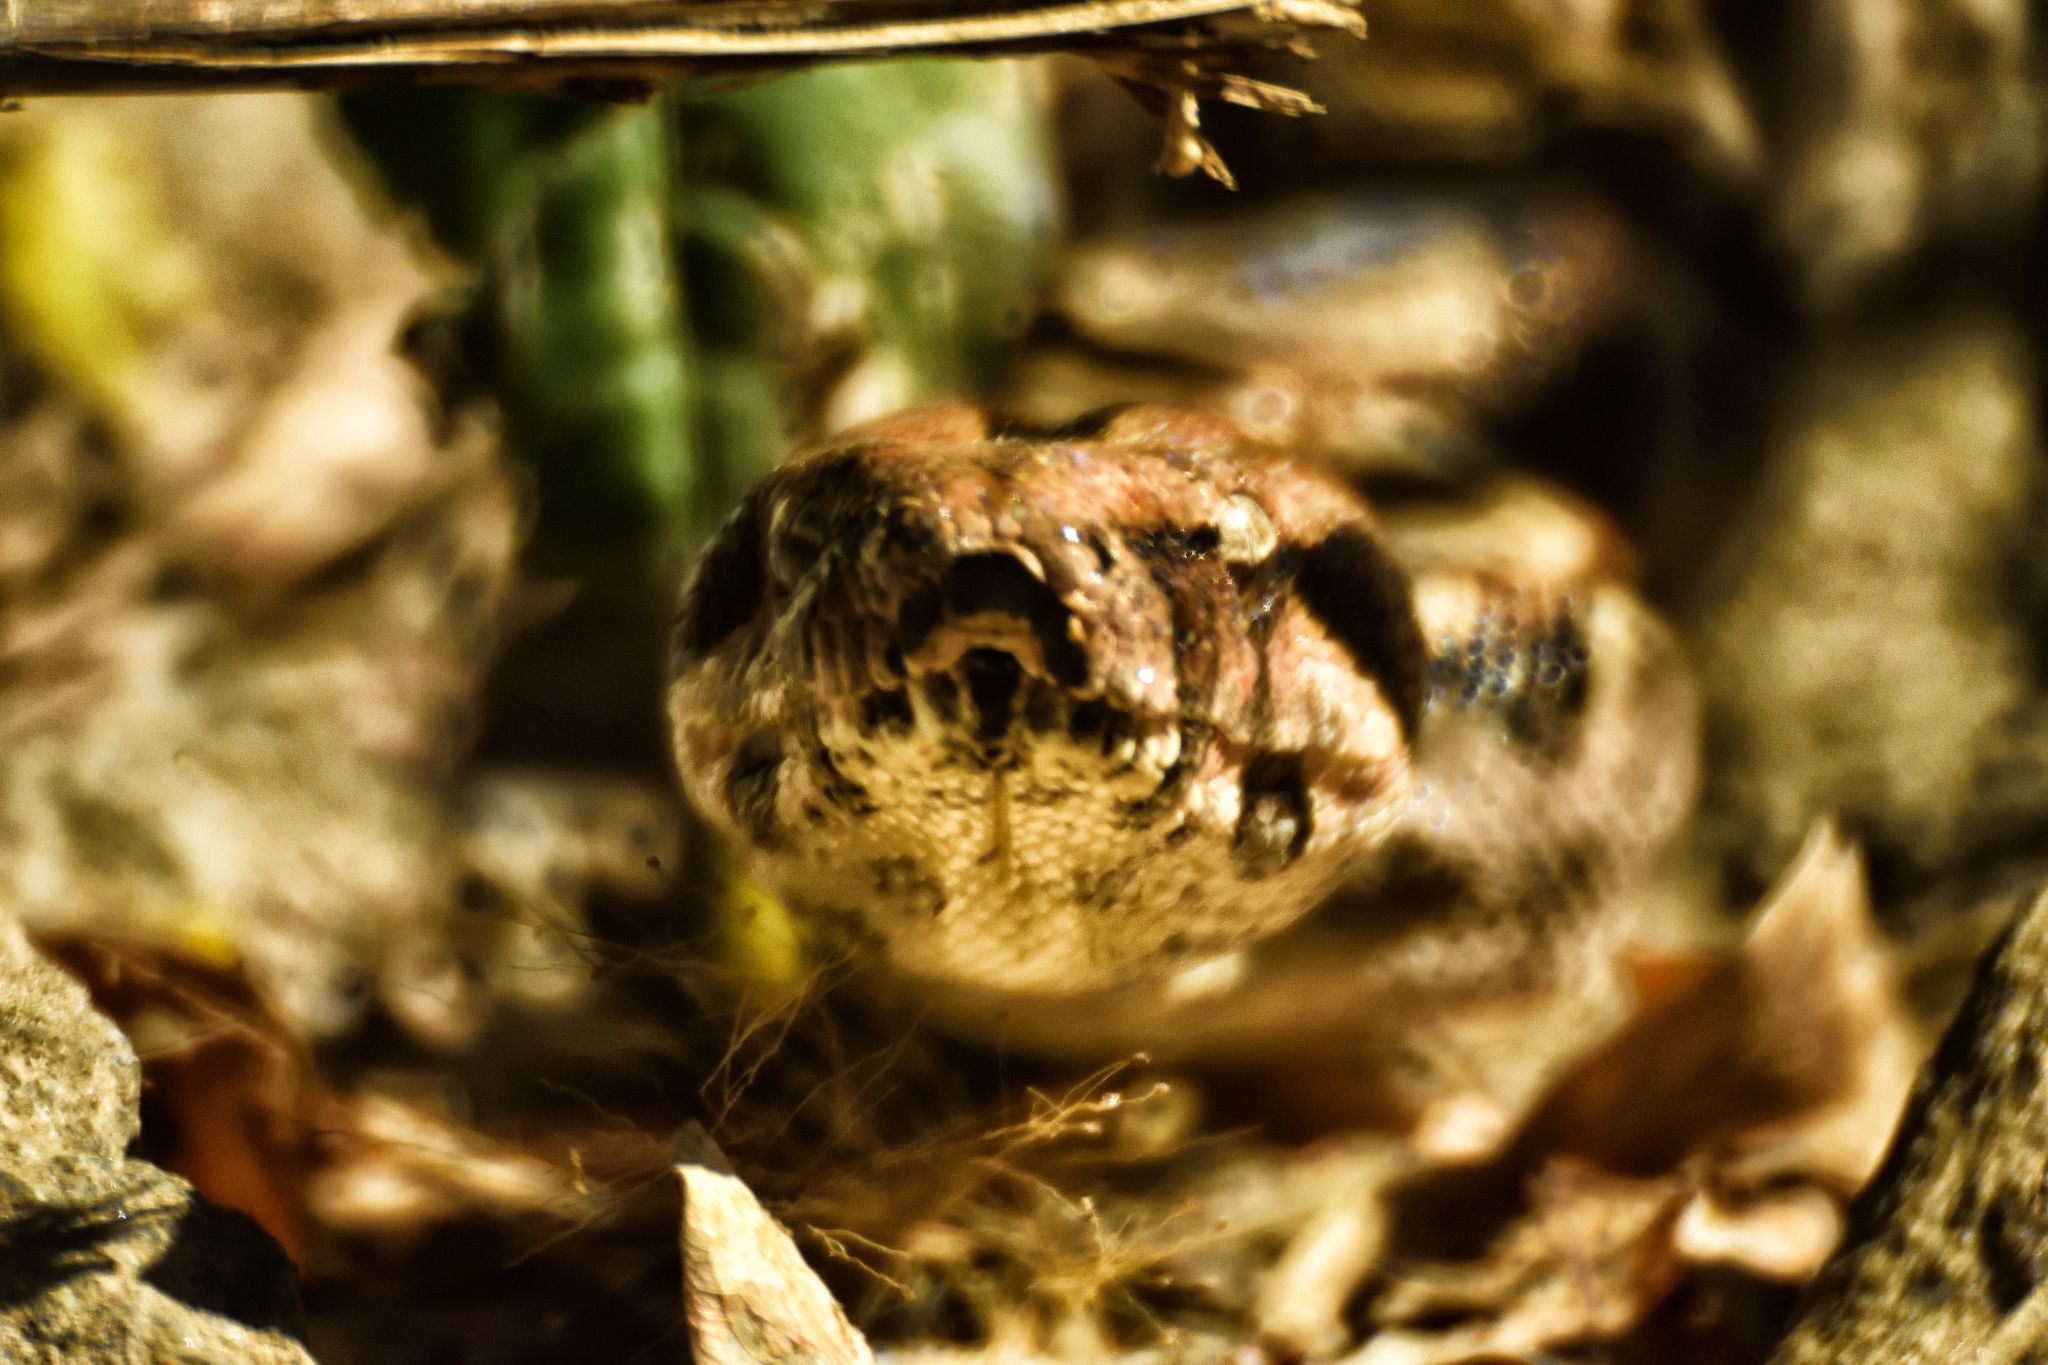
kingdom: Animalia
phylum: Chordata
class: Squamata
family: Boidae
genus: Boa
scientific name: Boa
